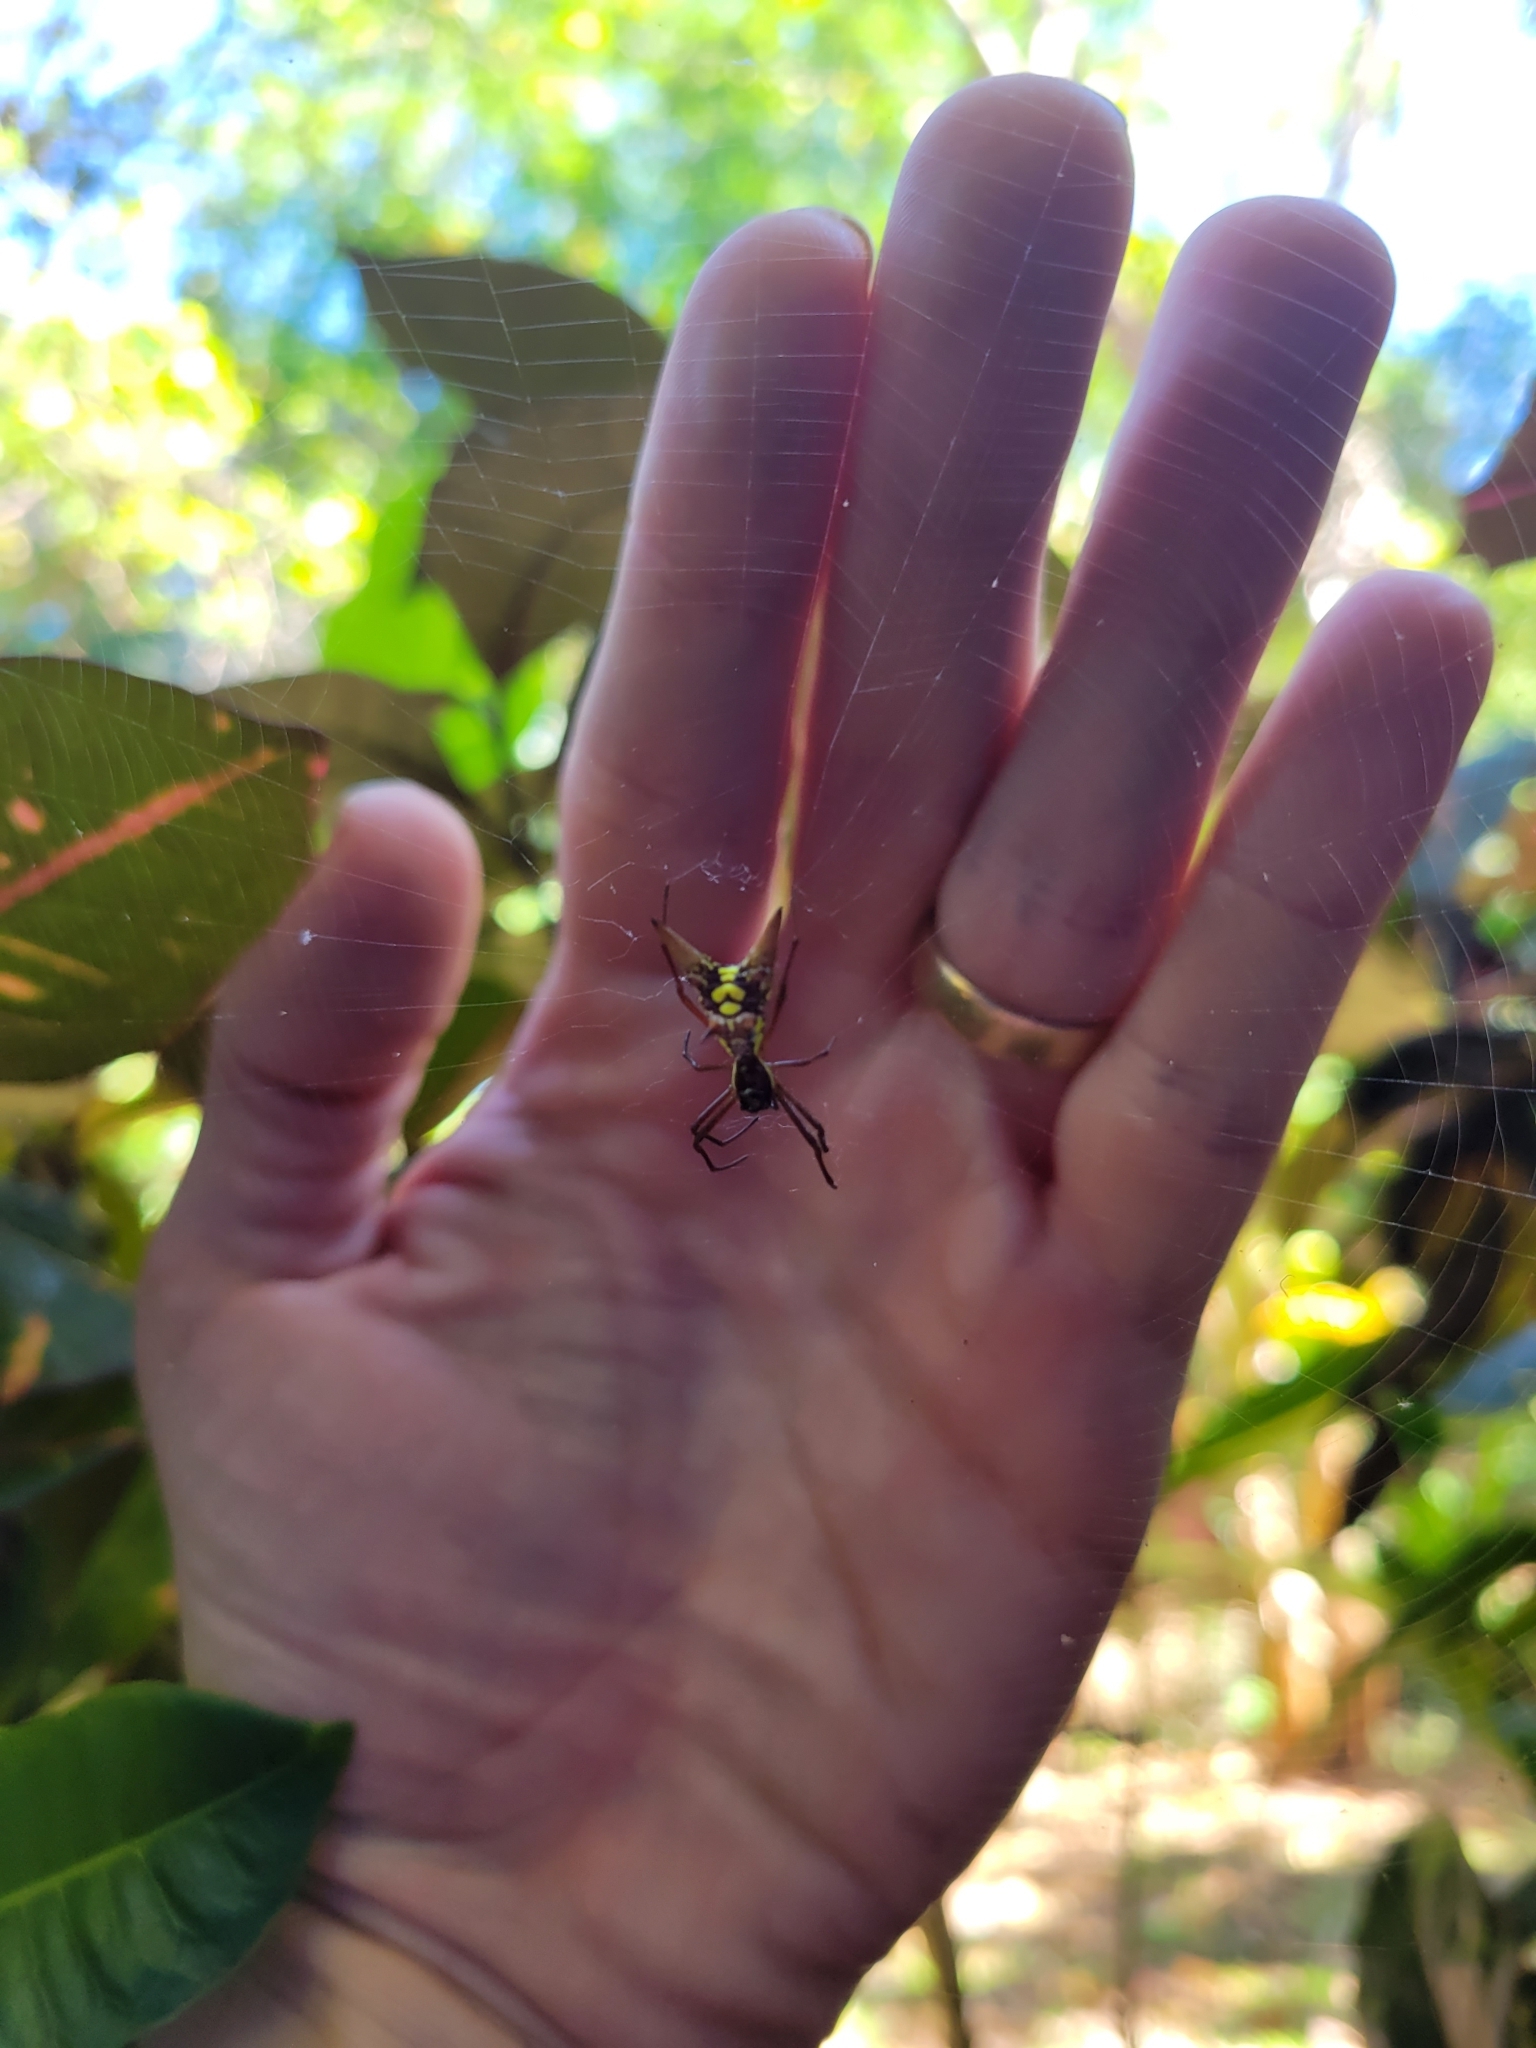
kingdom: Animalia
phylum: Arthropoda
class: Arachnida
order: Araneae
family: Araneidae
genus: Micrathena
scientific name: Micrathena sexspinosa
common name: Orb weavers
